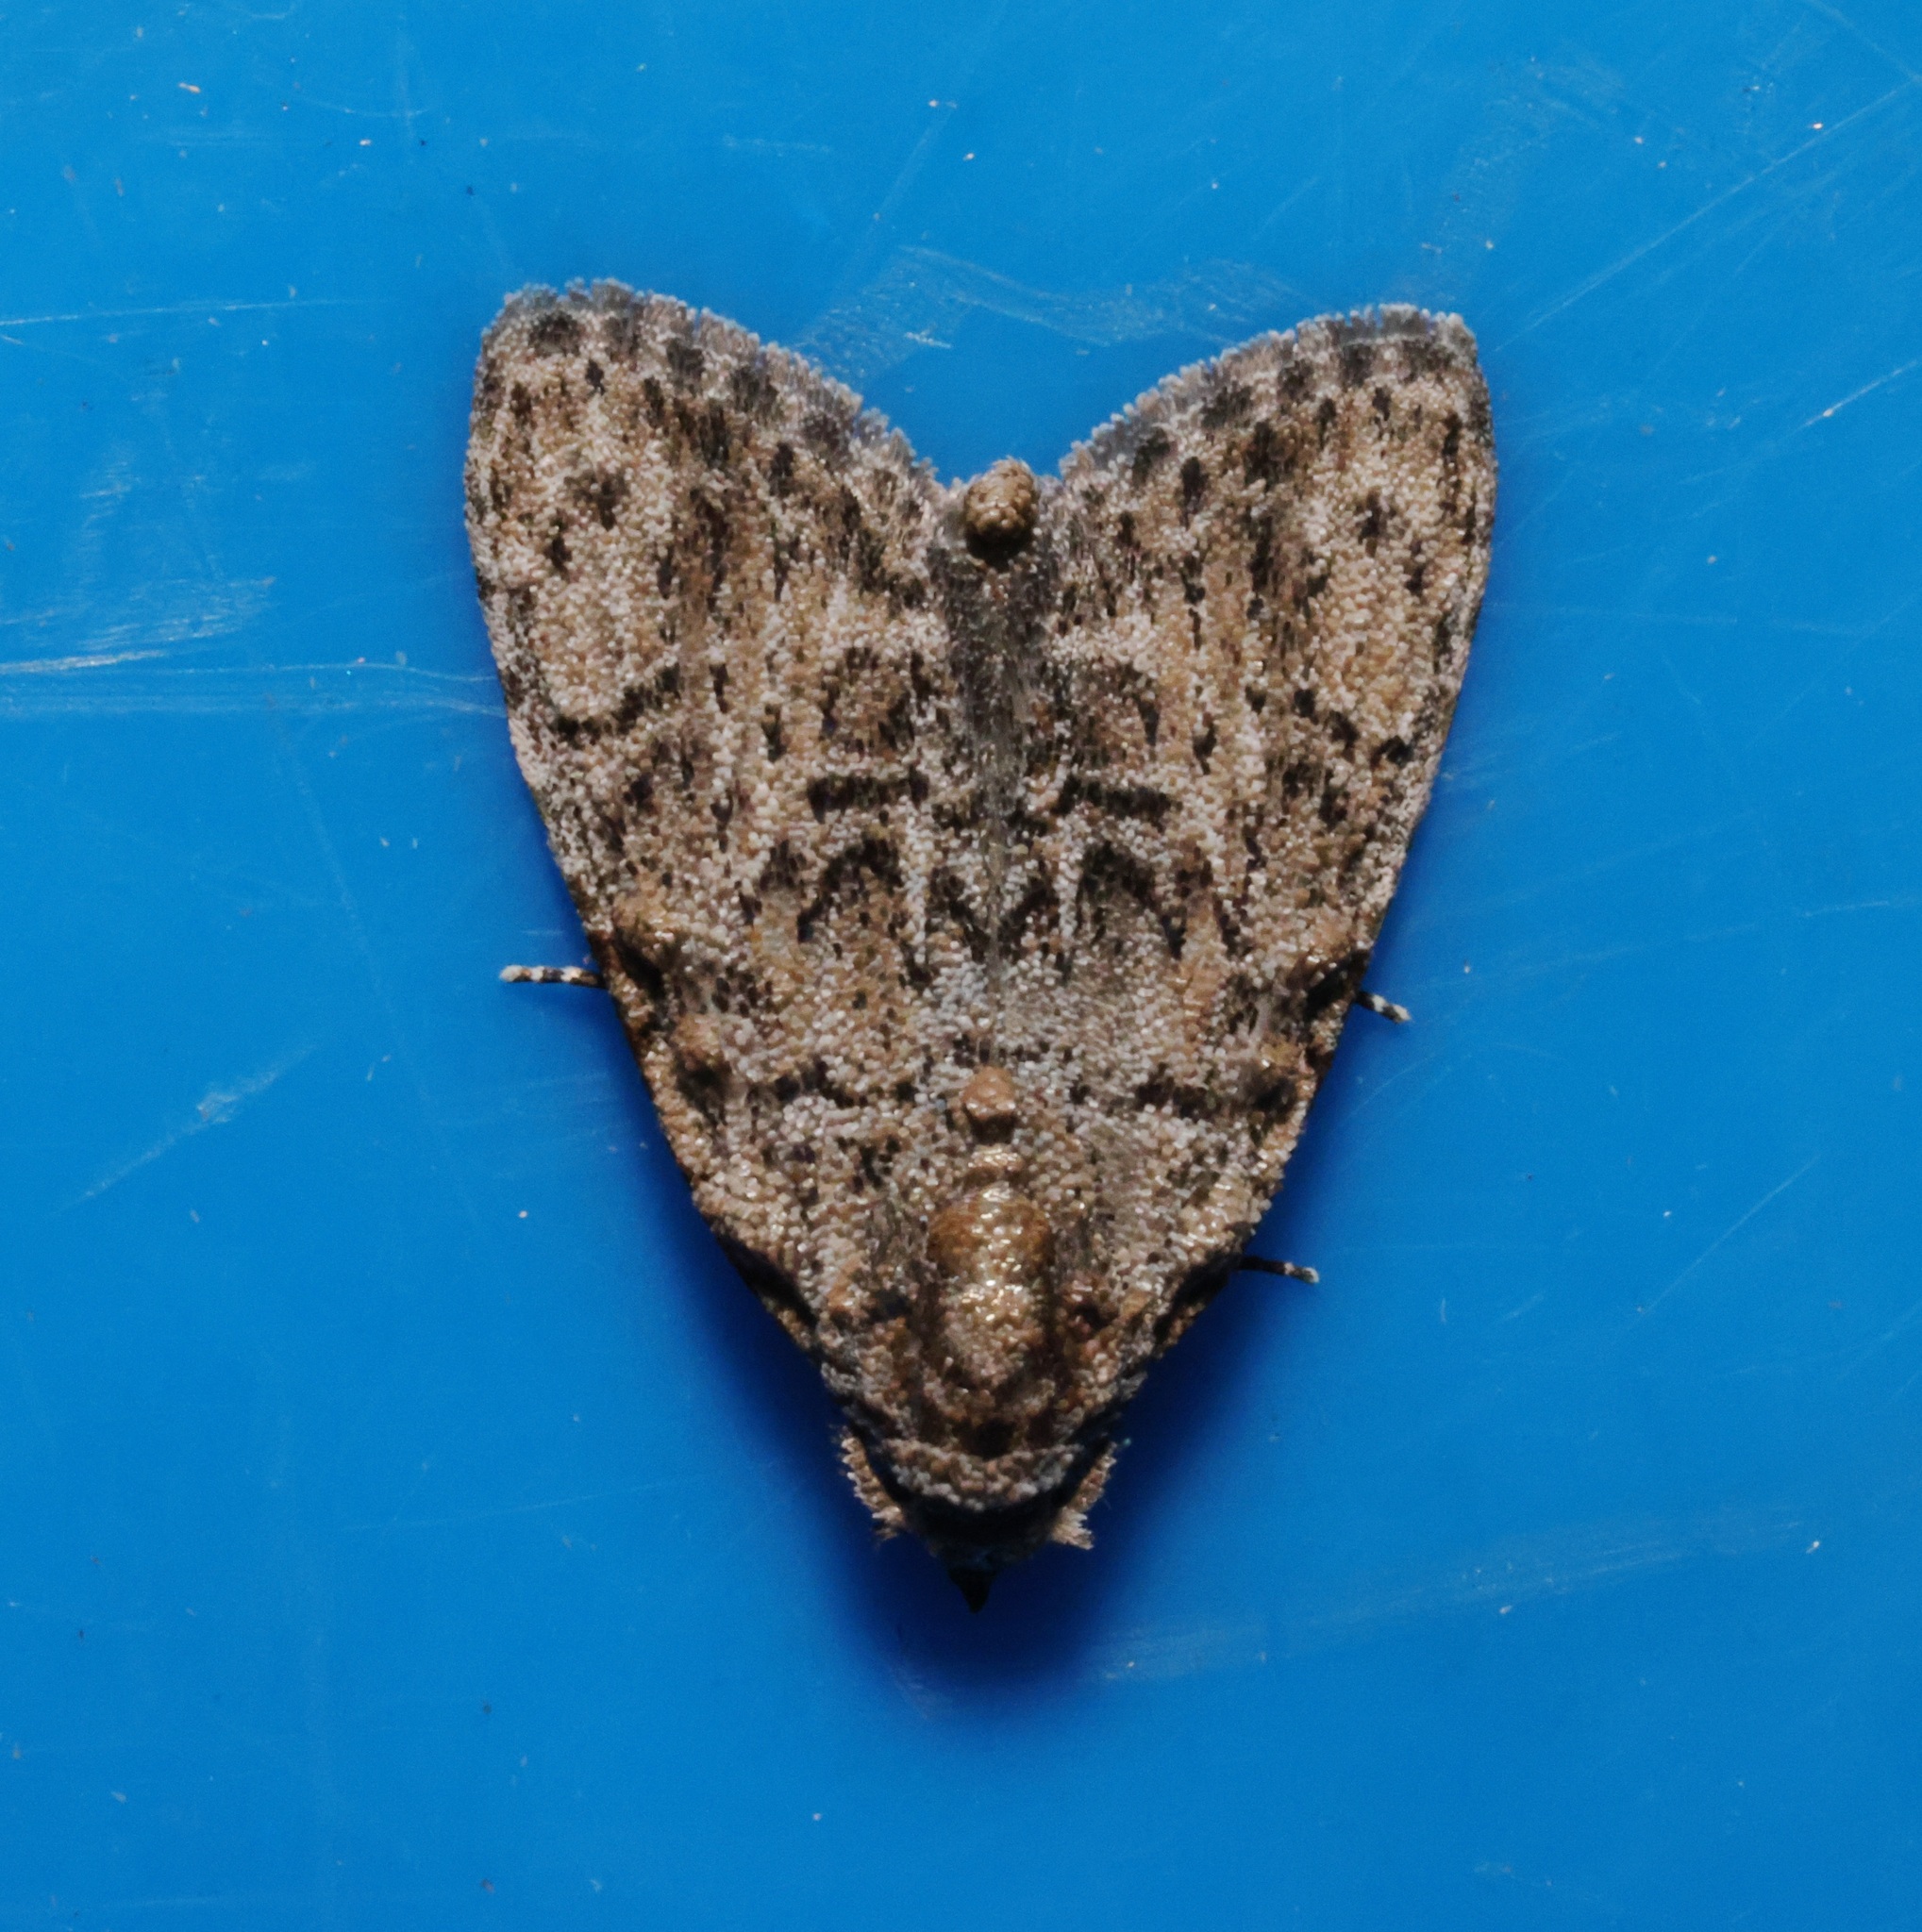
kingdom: Animalia
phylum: Arthropoda
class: Insecta
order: Lepidoptera
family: Nolidae
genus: Meganola
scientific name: Meganola zolotuhini
